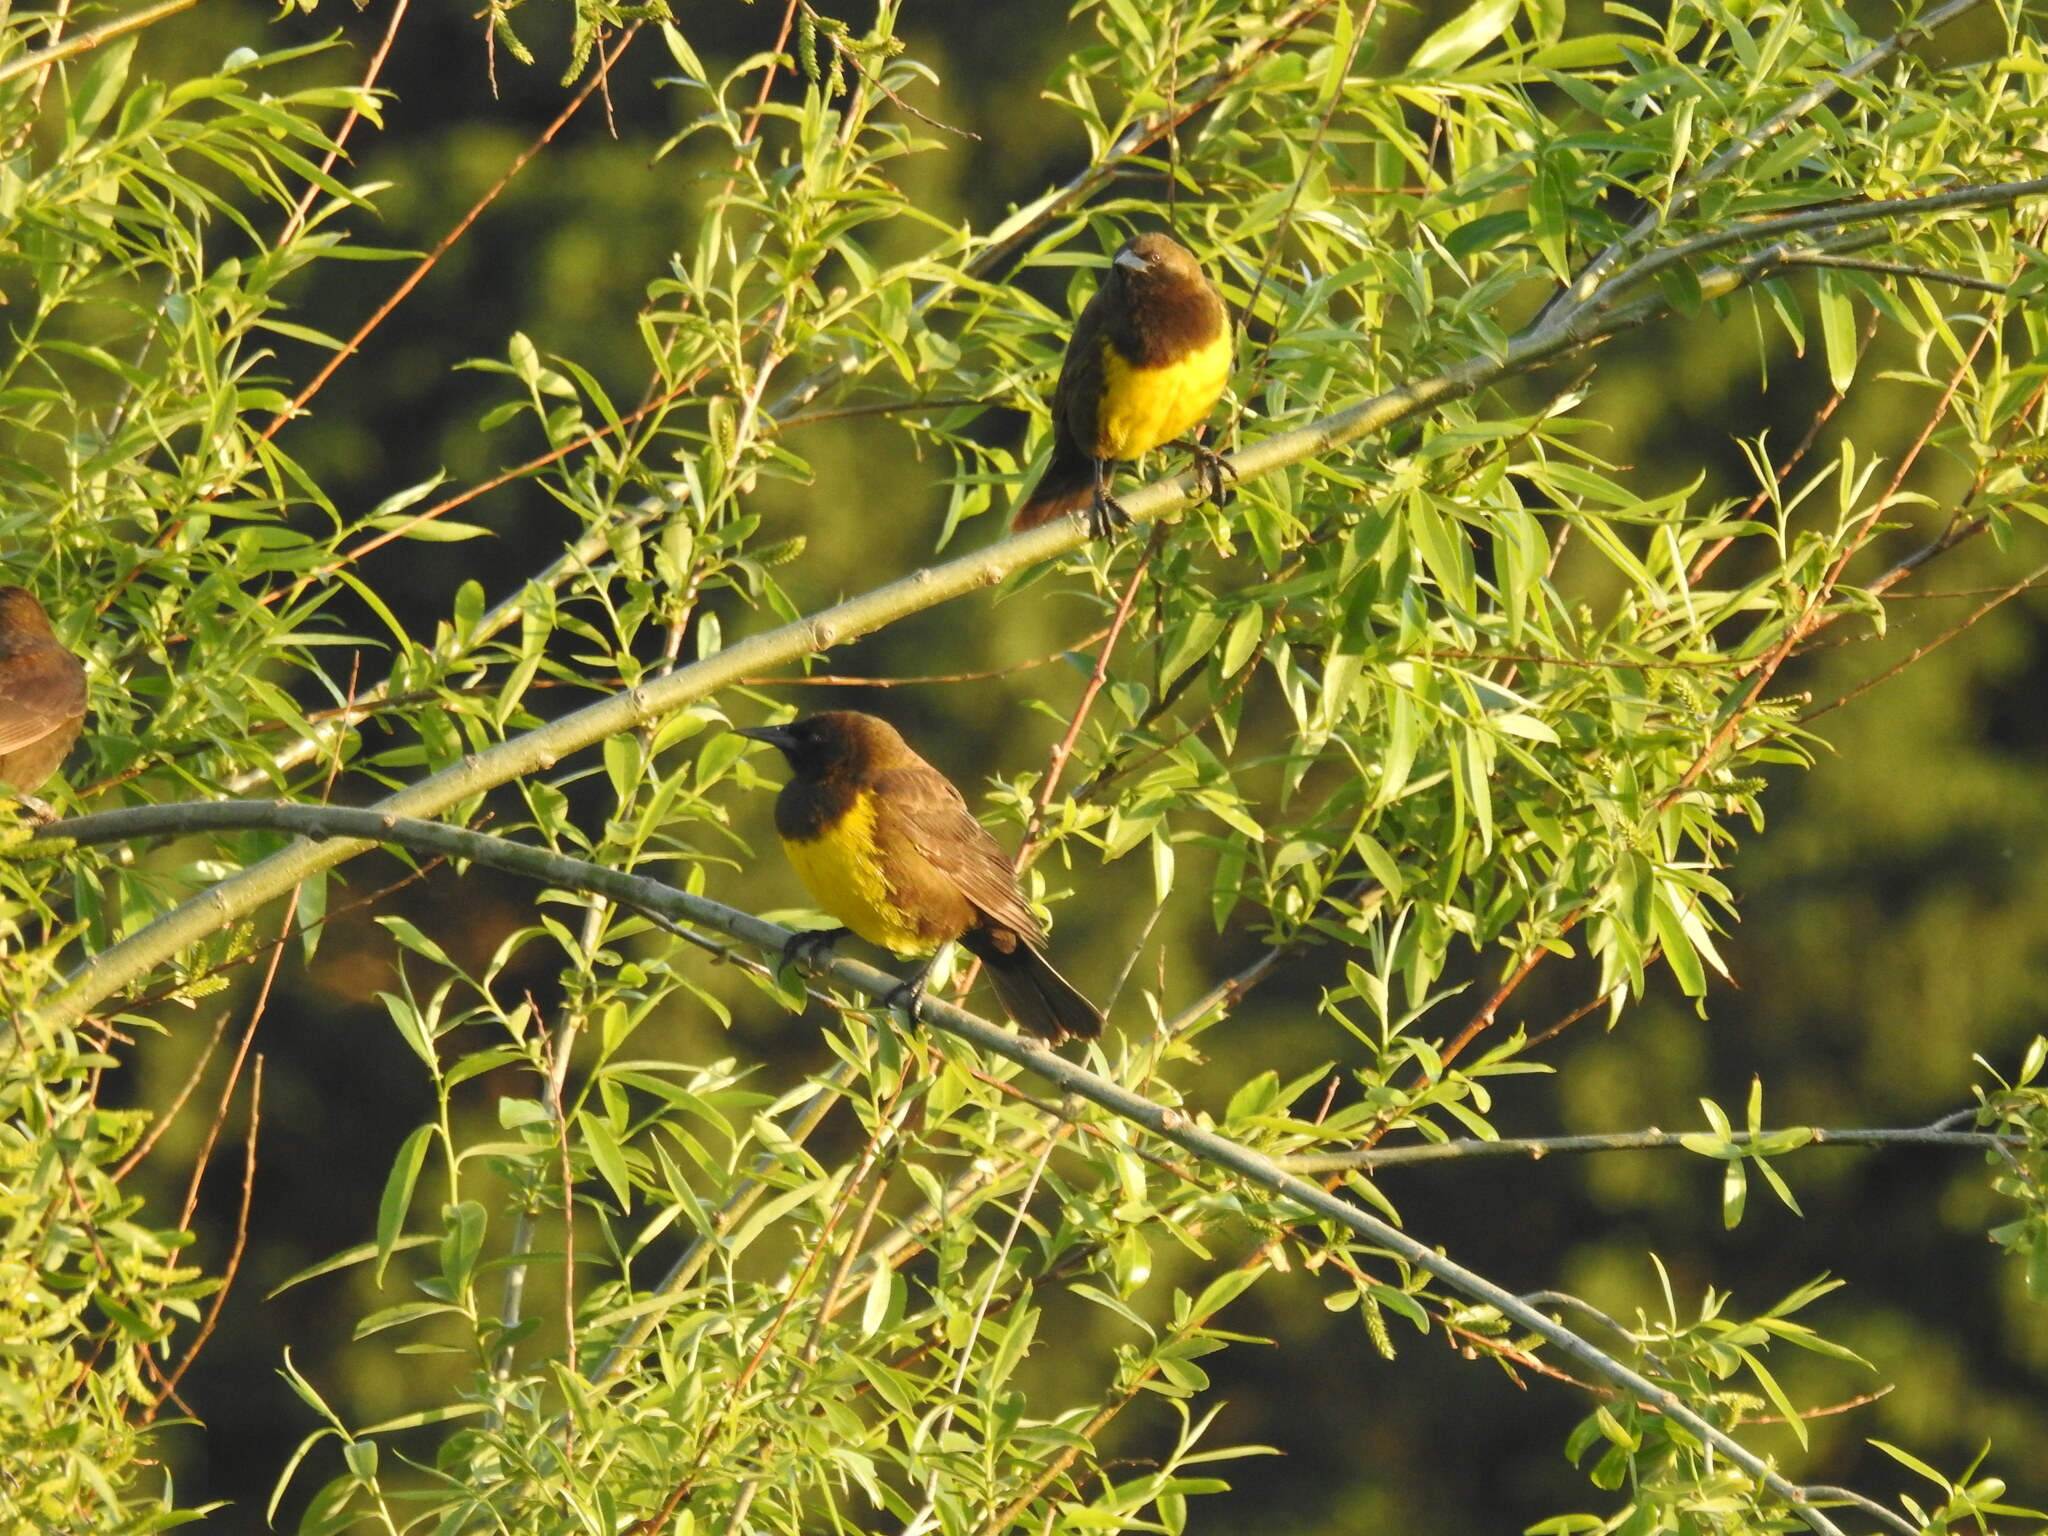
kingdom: Animalia
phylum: Chordata
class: Aves
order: Passeriformes
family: Icteridae
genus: Pseudoleistes
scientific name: Pseudoleistes virescens
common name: Brown-and-yellow marshbird
